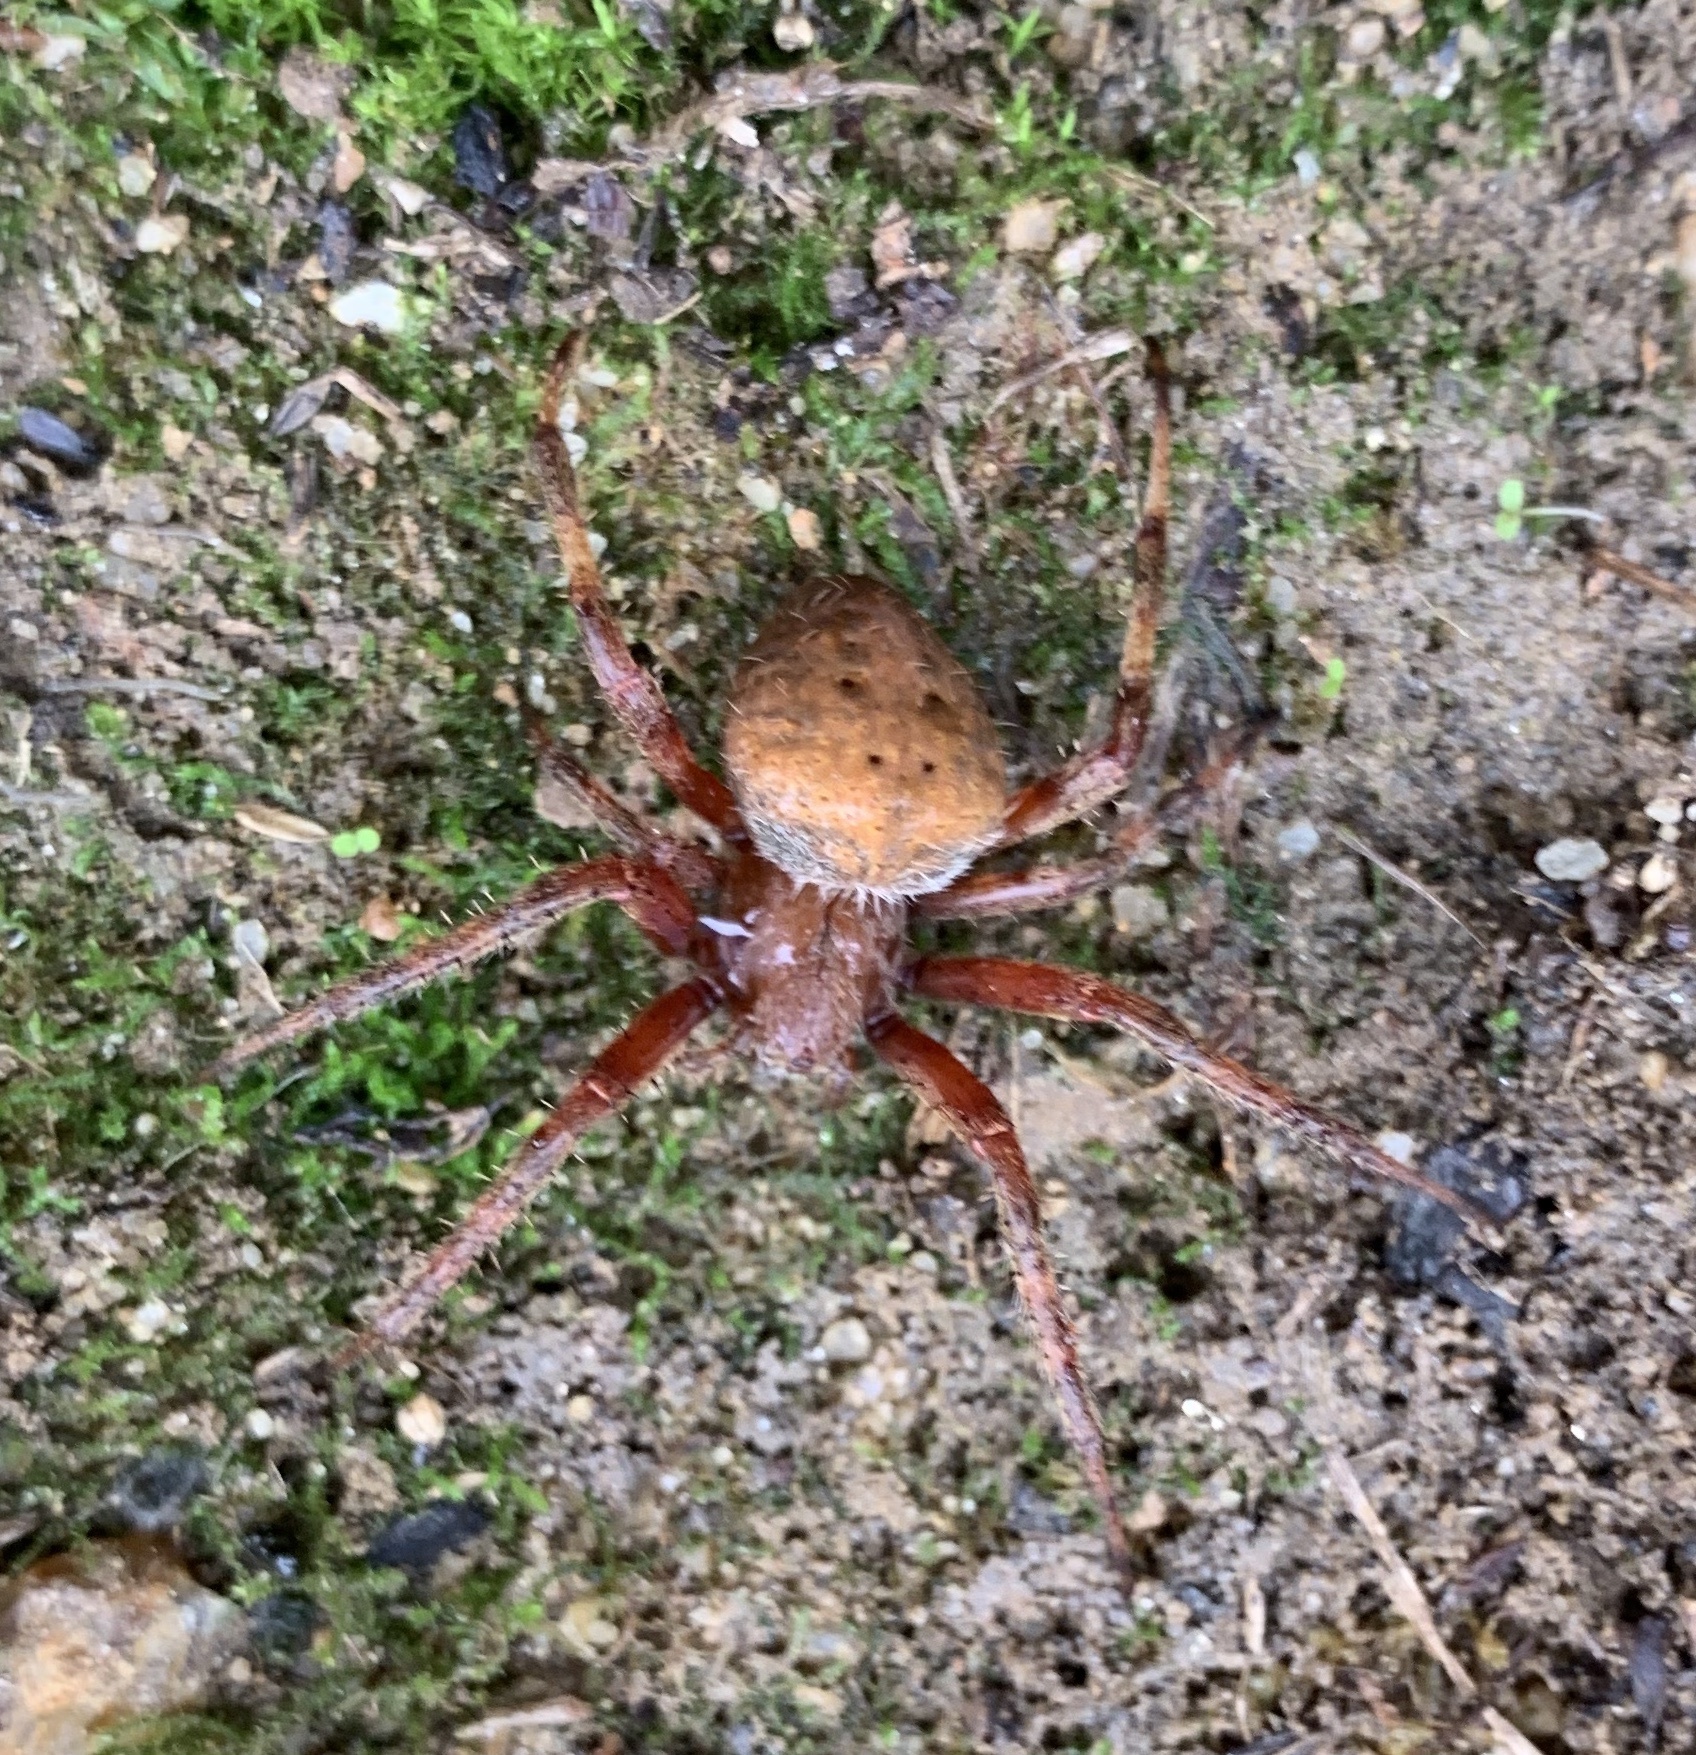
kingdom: Animalia
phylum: Arthropoda
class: Arachnida
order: Araneae
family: Araneidae
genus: Neoscona
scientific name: Neoscona crucifera
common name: Spotted orbweaver
